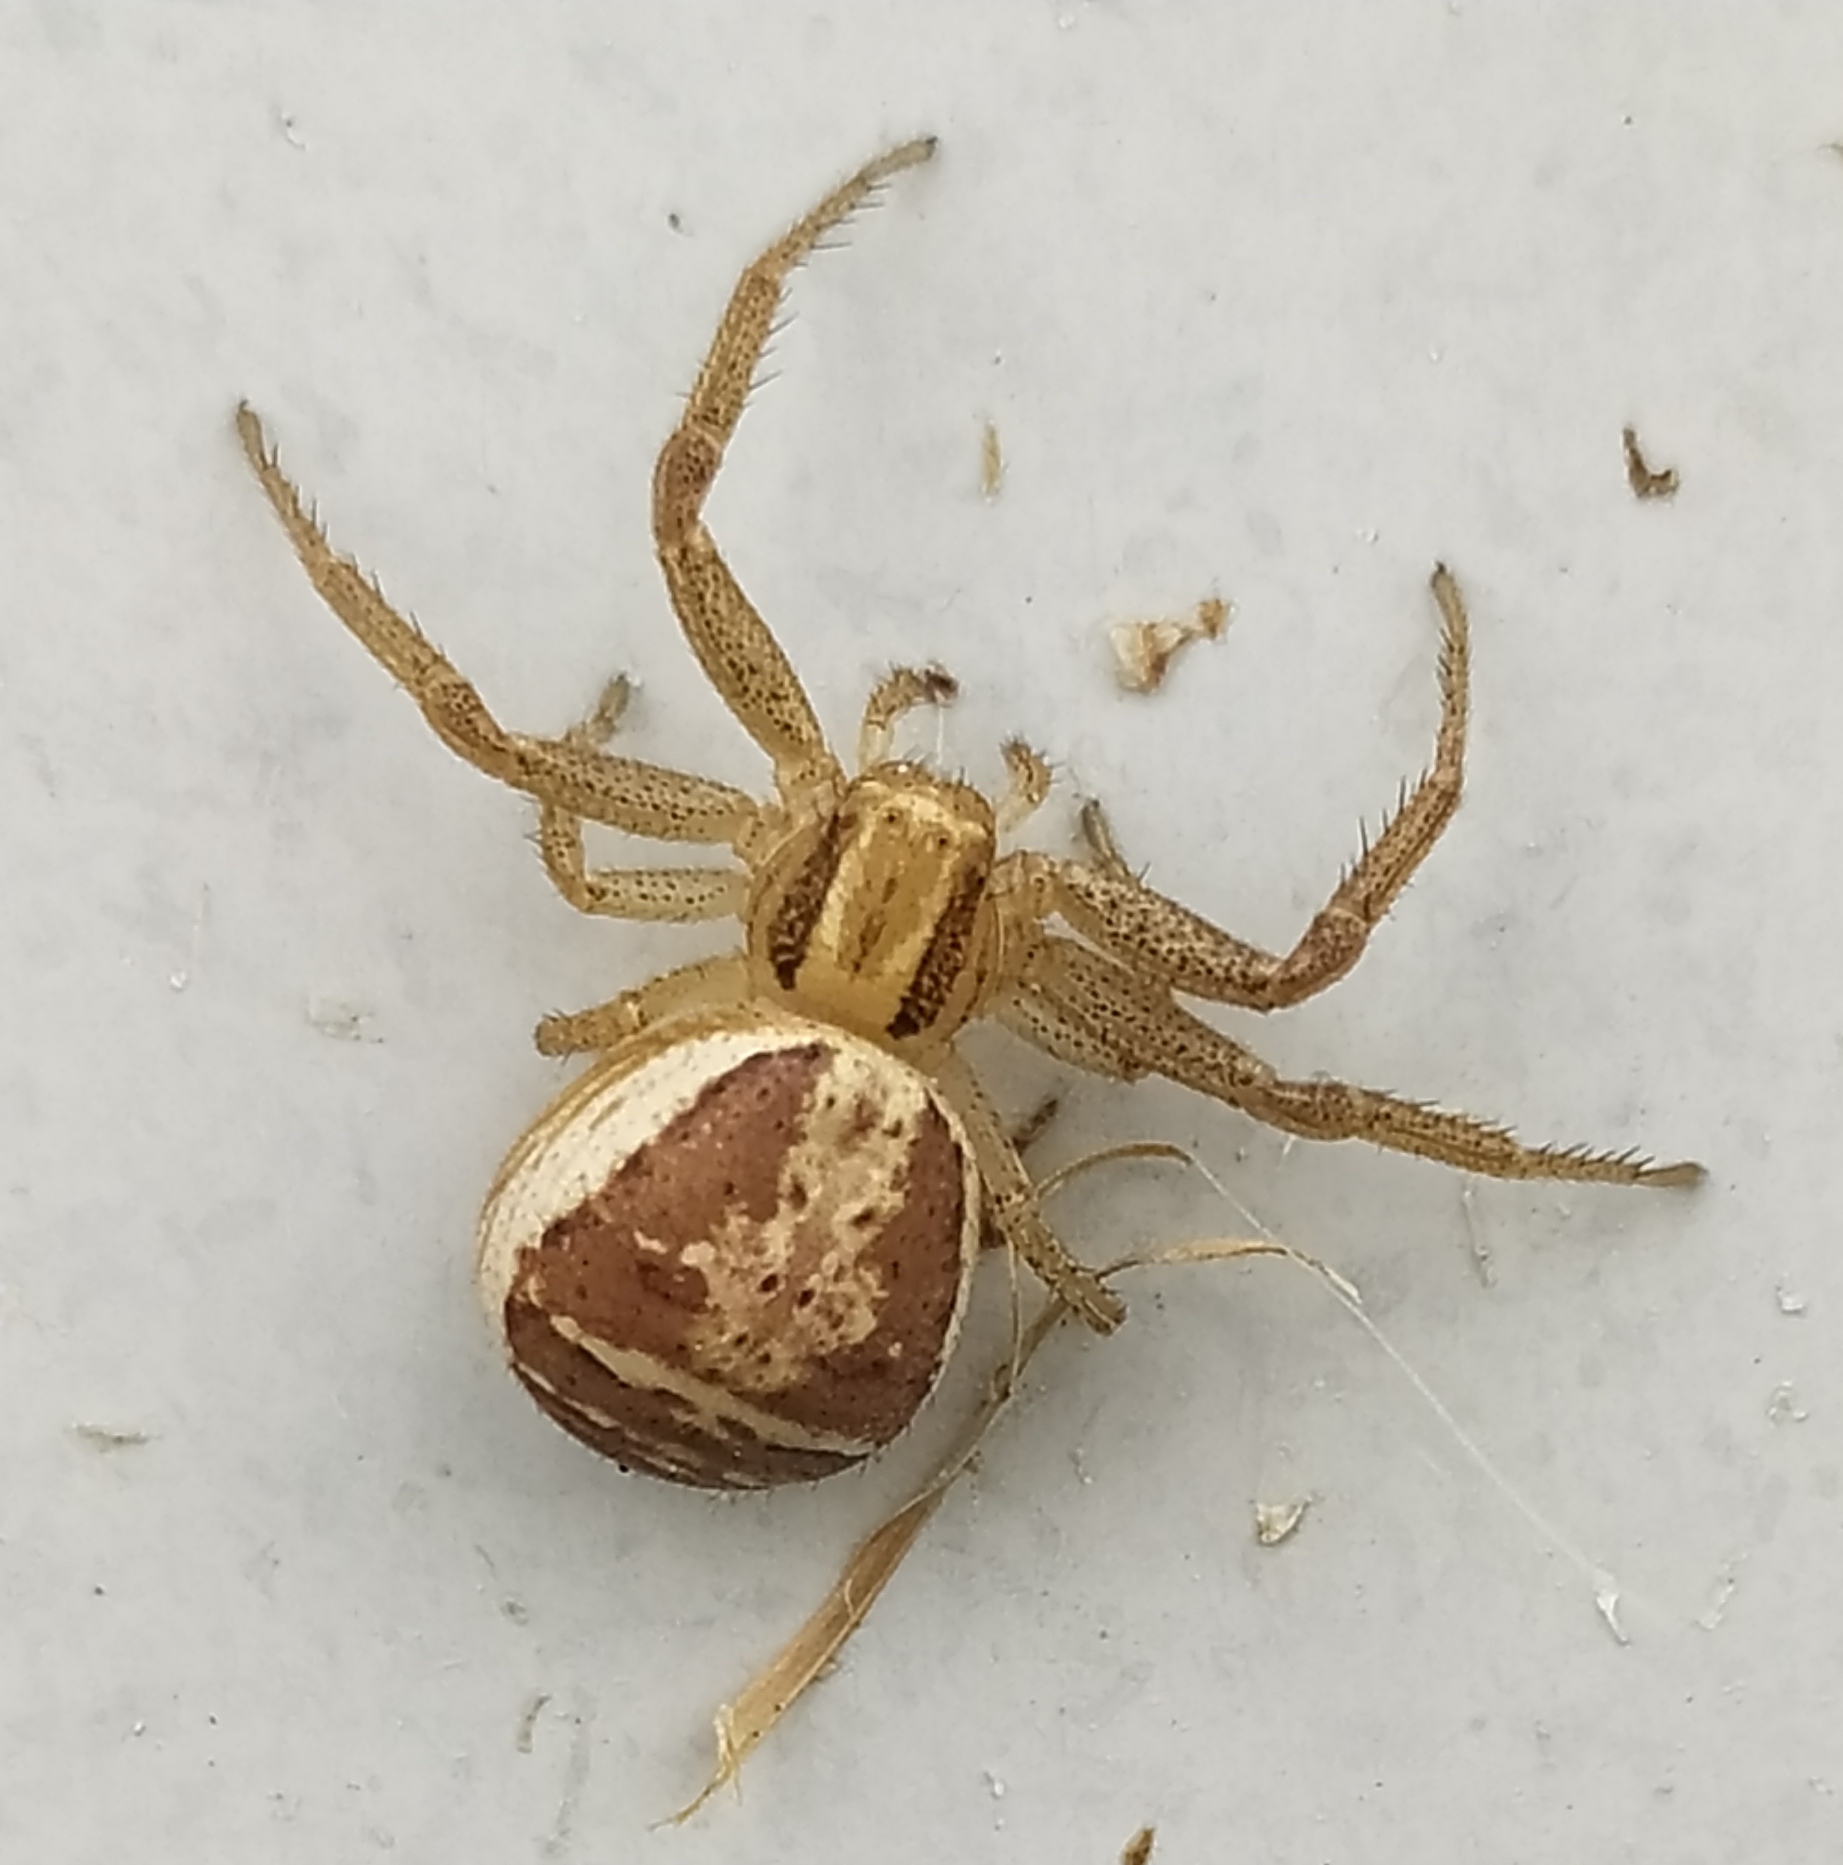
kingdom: Animalia
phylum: Arthropoda
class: Arachnida
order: Araneae
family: Thomisidae
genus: Xysticus
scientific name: Xysticus ulmi
